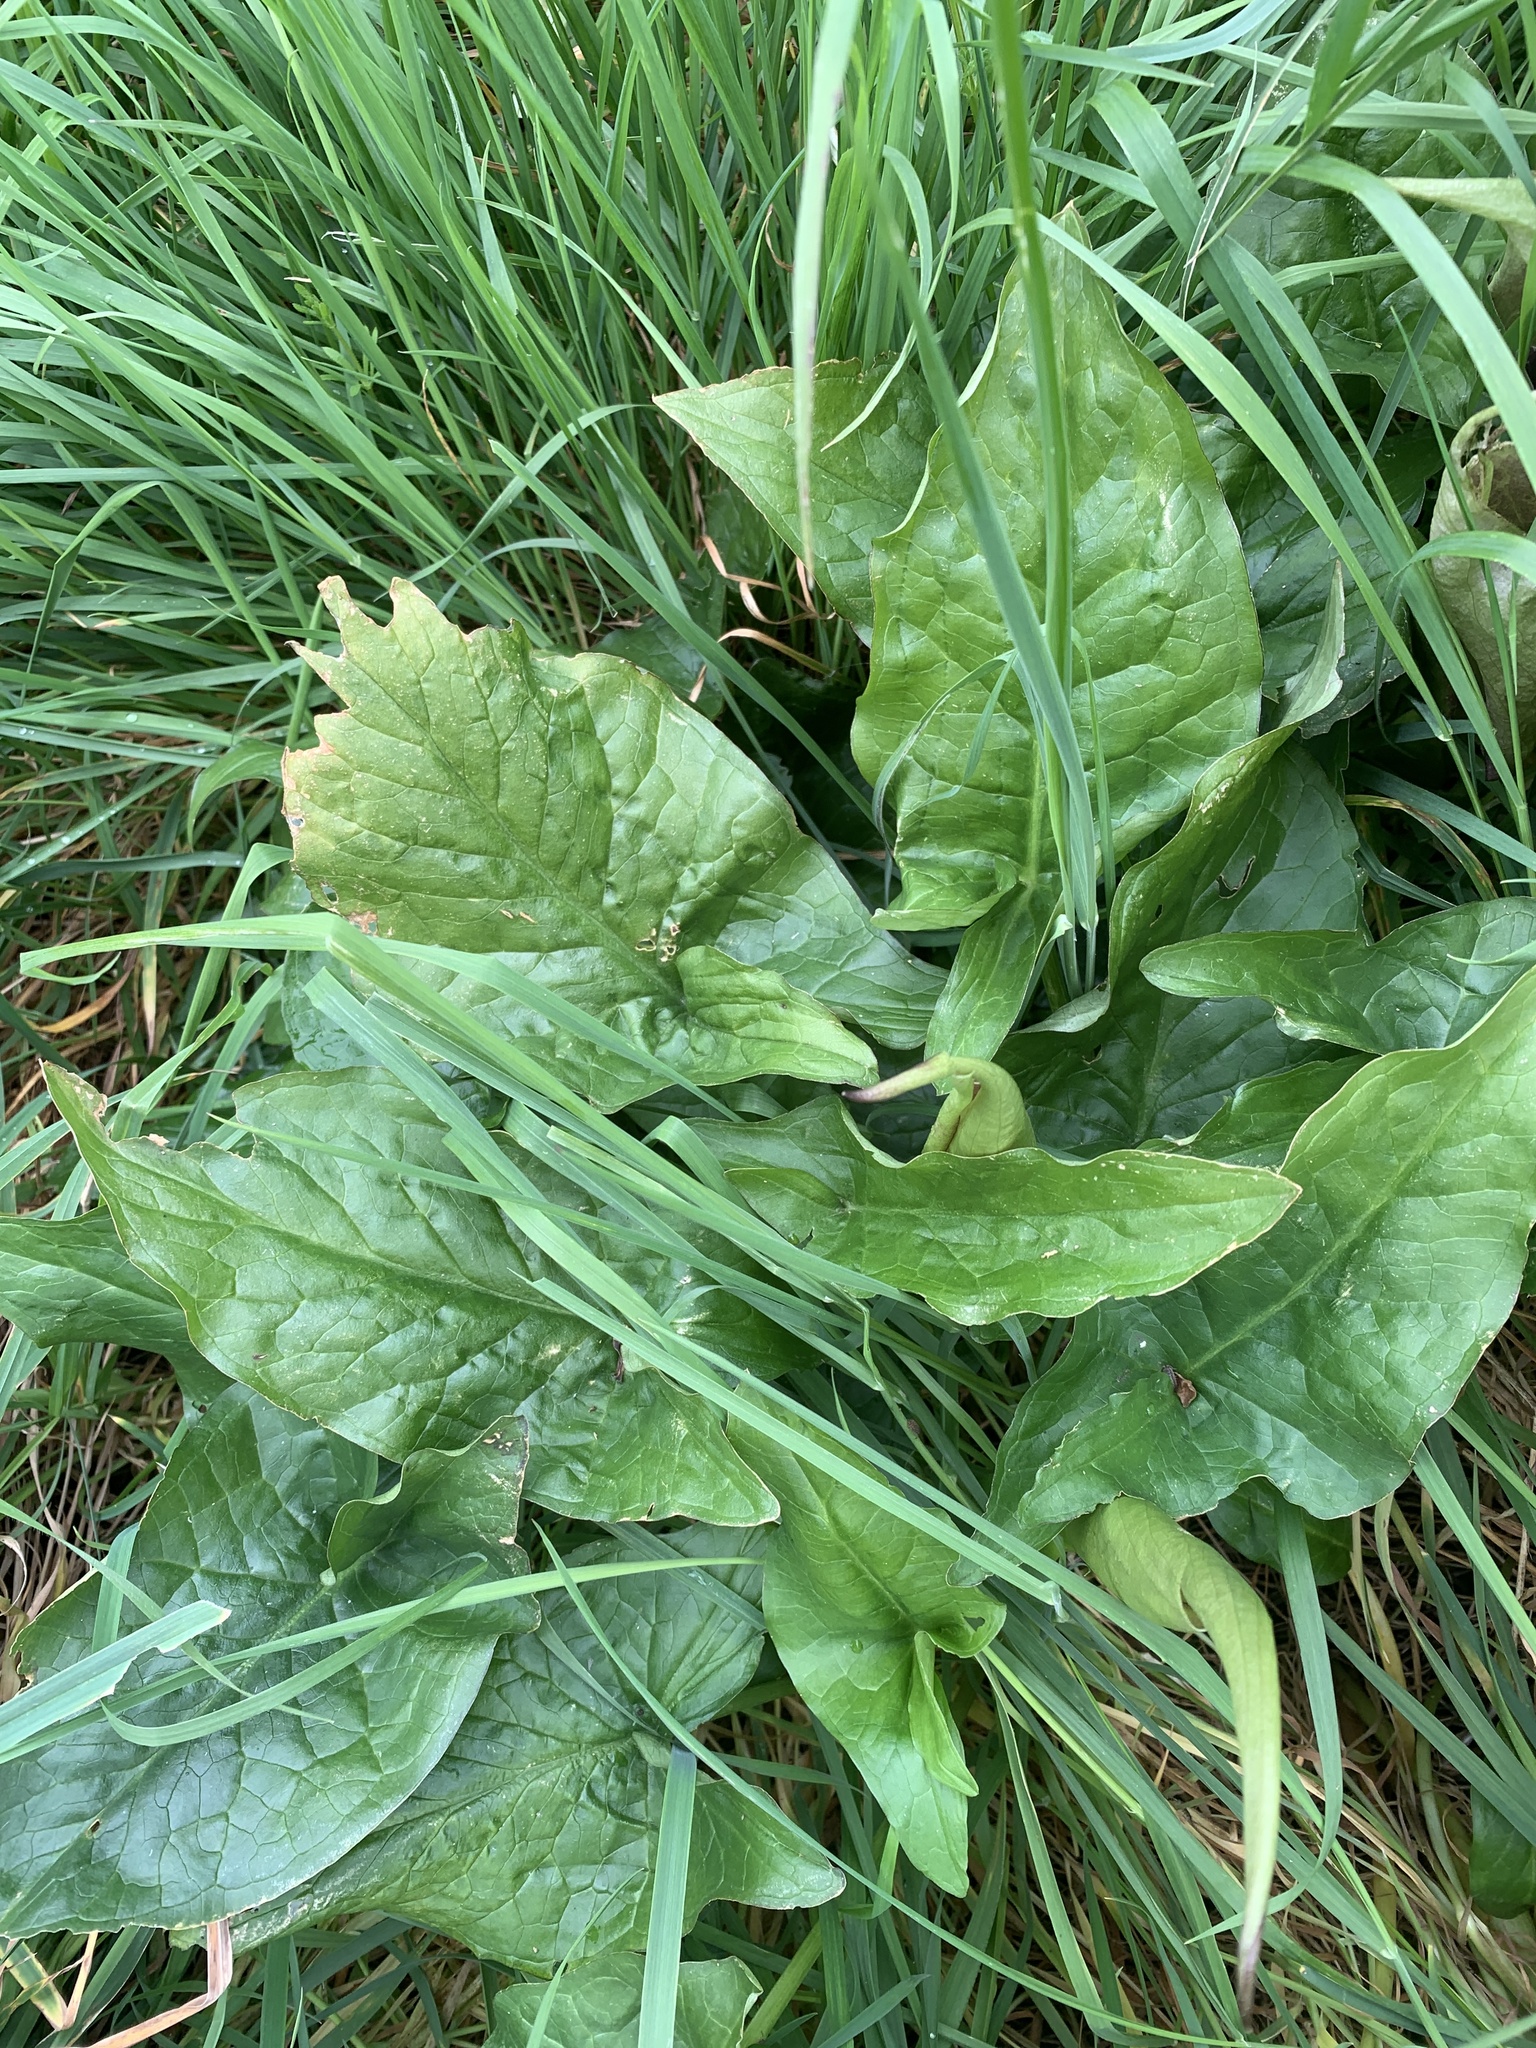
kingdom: Plantae
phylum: Tracheophyta
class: Liliopsida
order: Alismatales
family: Araceae
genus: Arum
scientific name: Arum maculatum
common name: Lords-and-ladies
